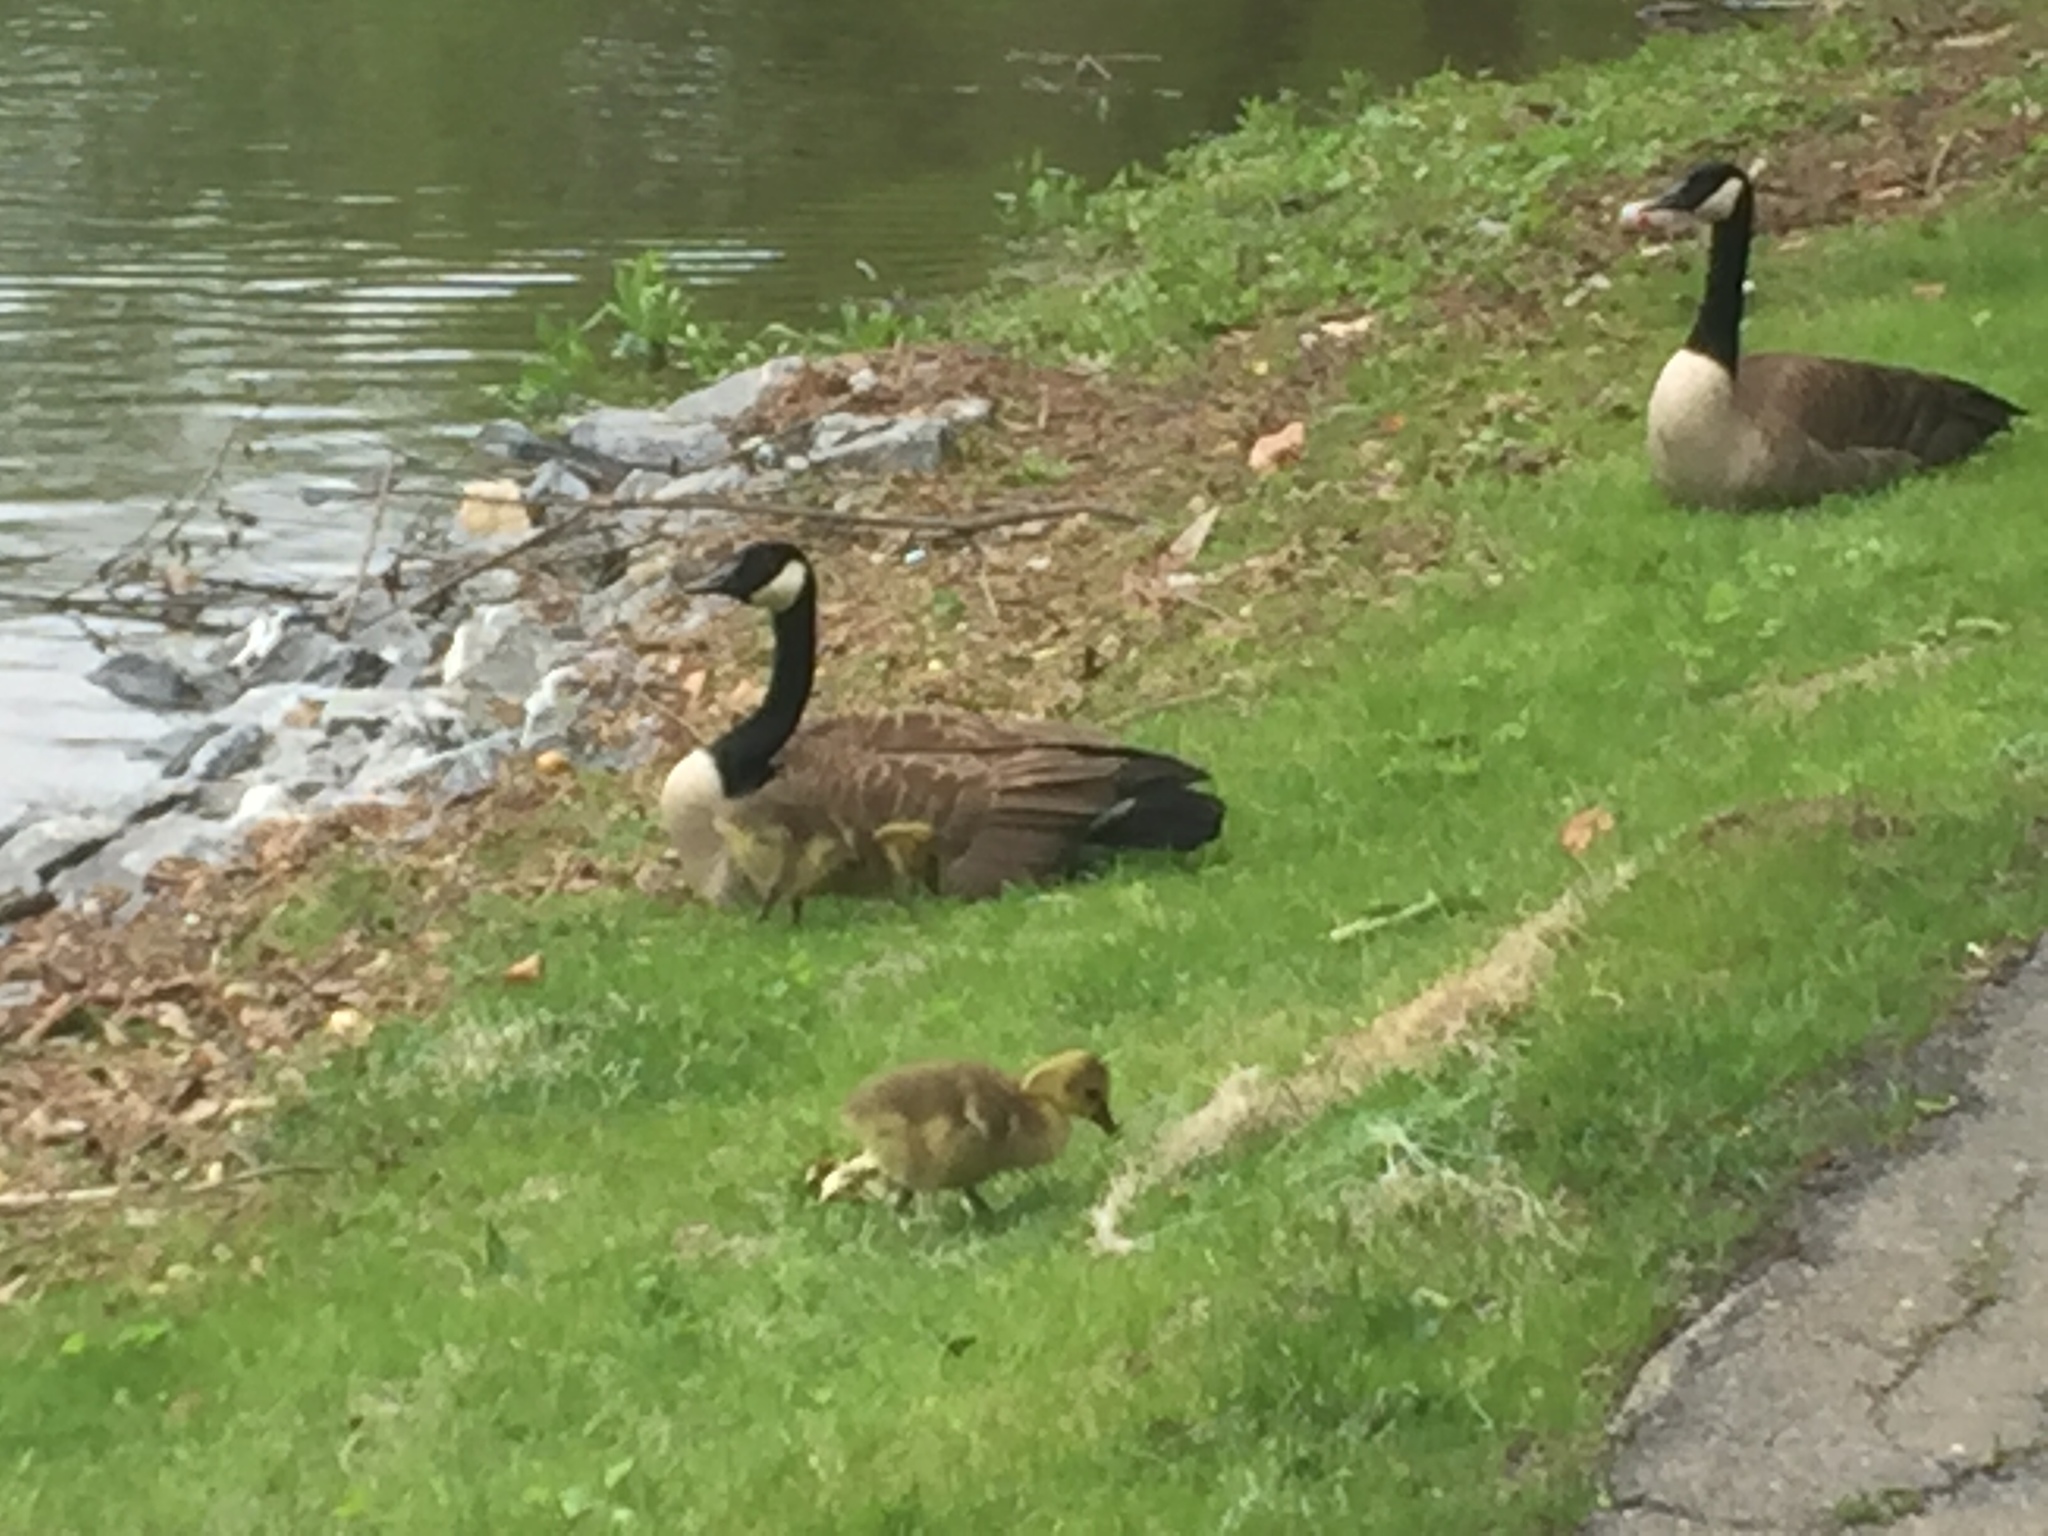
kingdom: Animalia
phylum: Chordata
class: Aves
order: Anseriformes
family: Anatidae
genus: Branta
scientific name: Branta canadensis
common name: Canada goose
